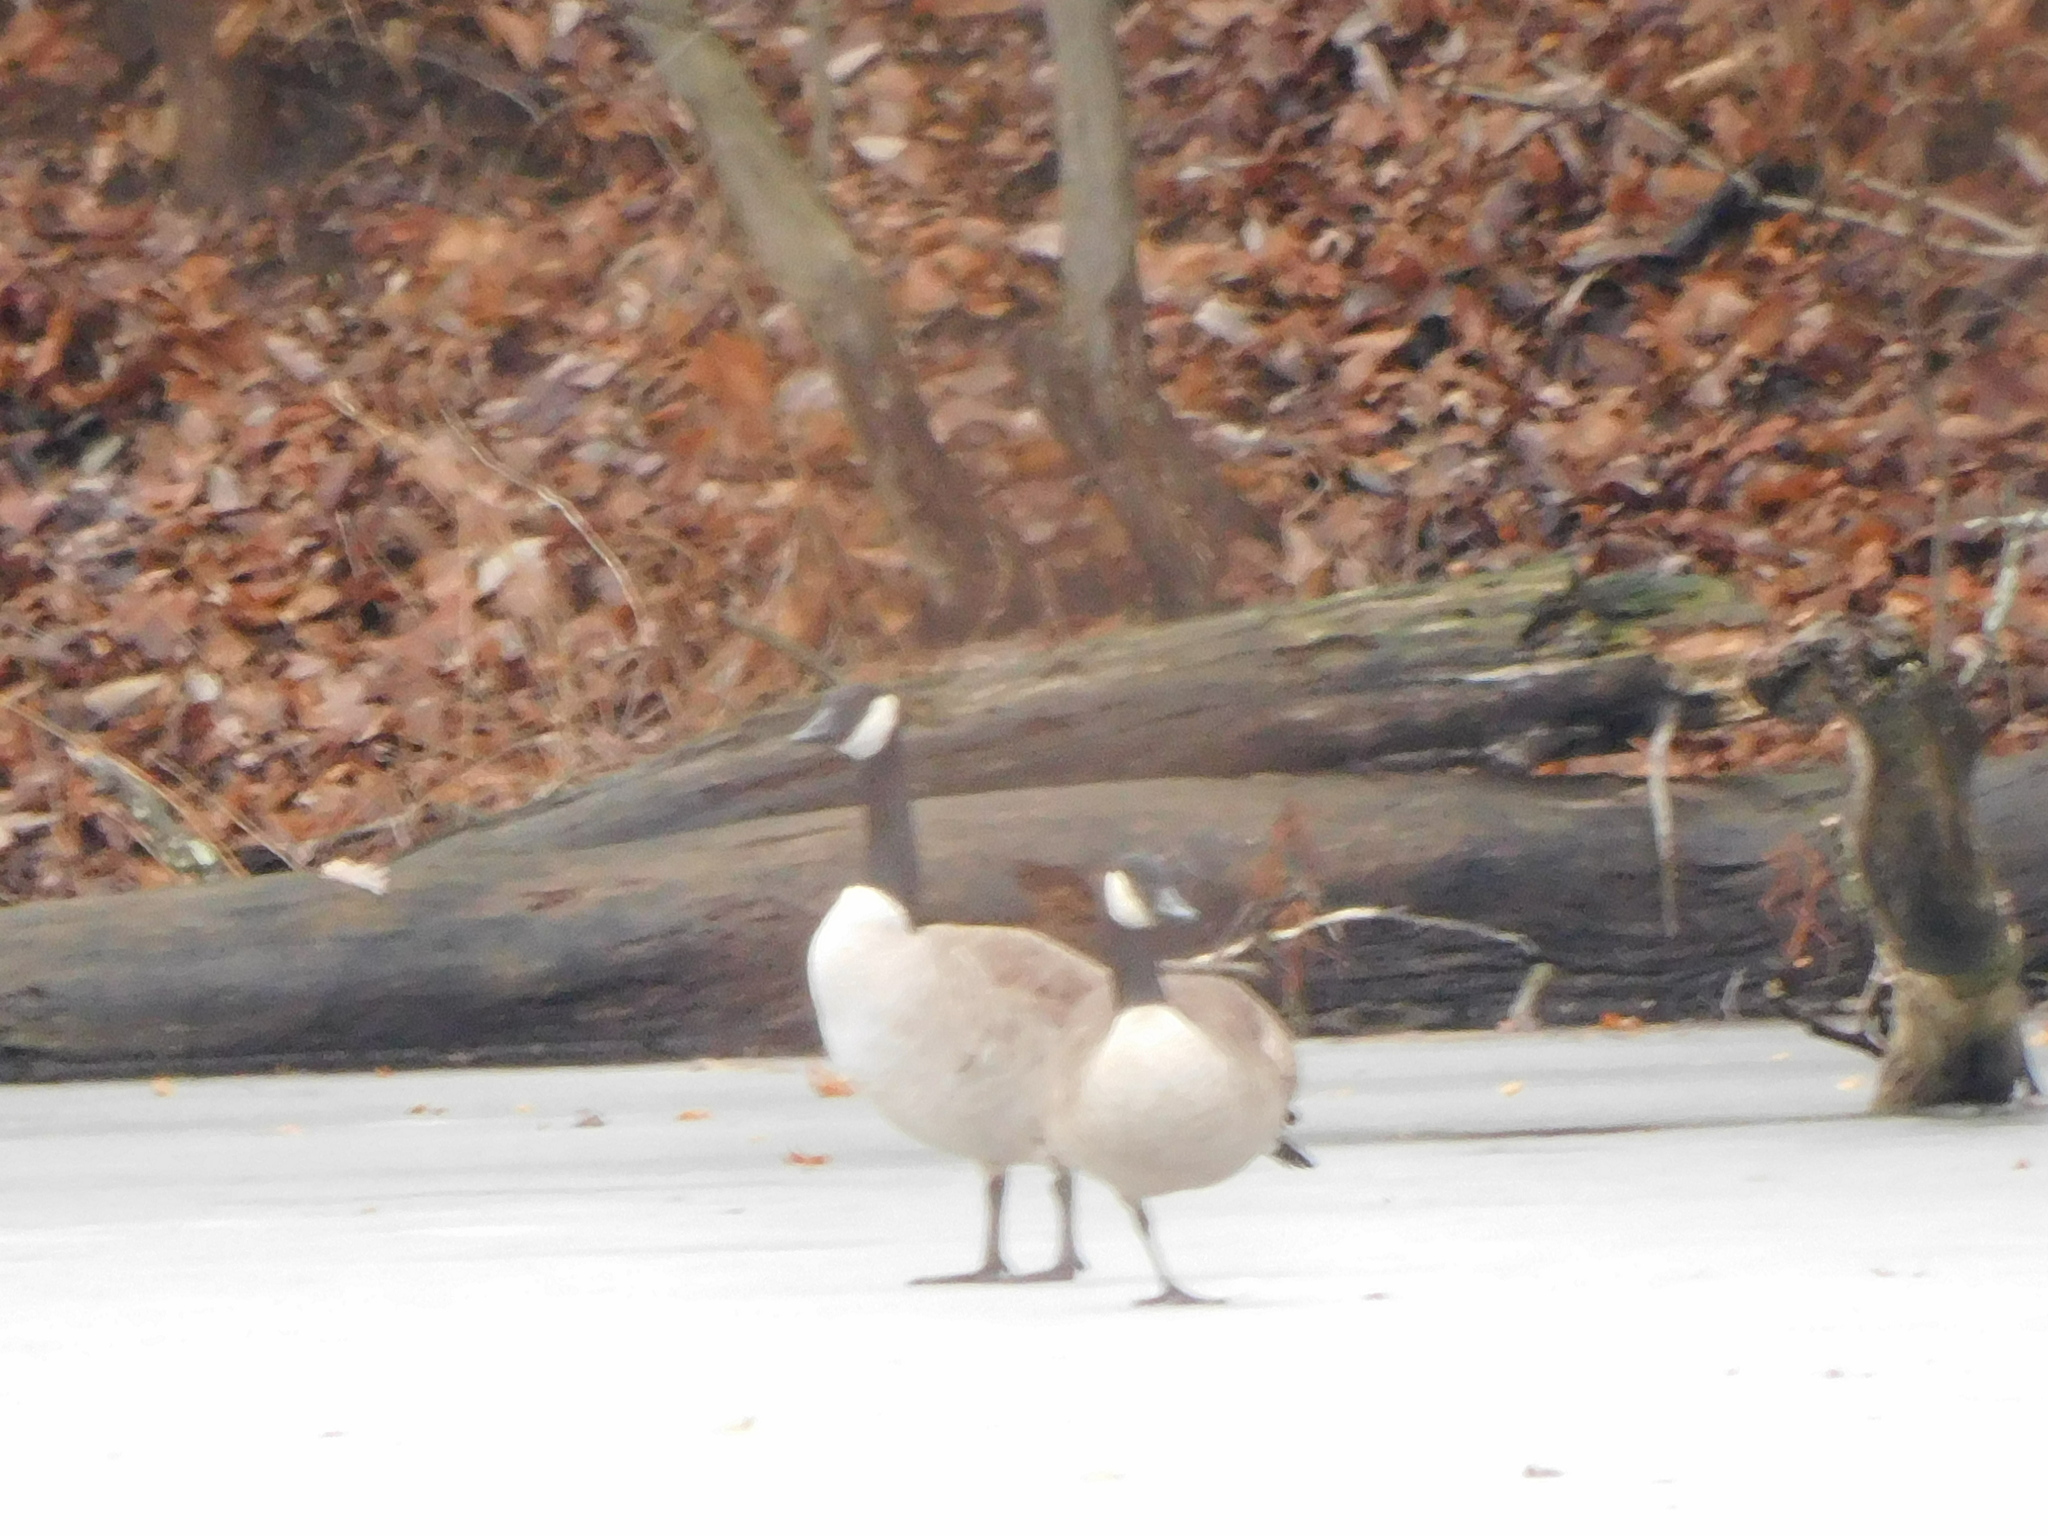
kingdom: Animalia
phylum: Chordata
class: Aves
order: Anseriformes
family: Anatidae
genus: Branta
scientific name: Branta canadensis
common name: Canada goose
